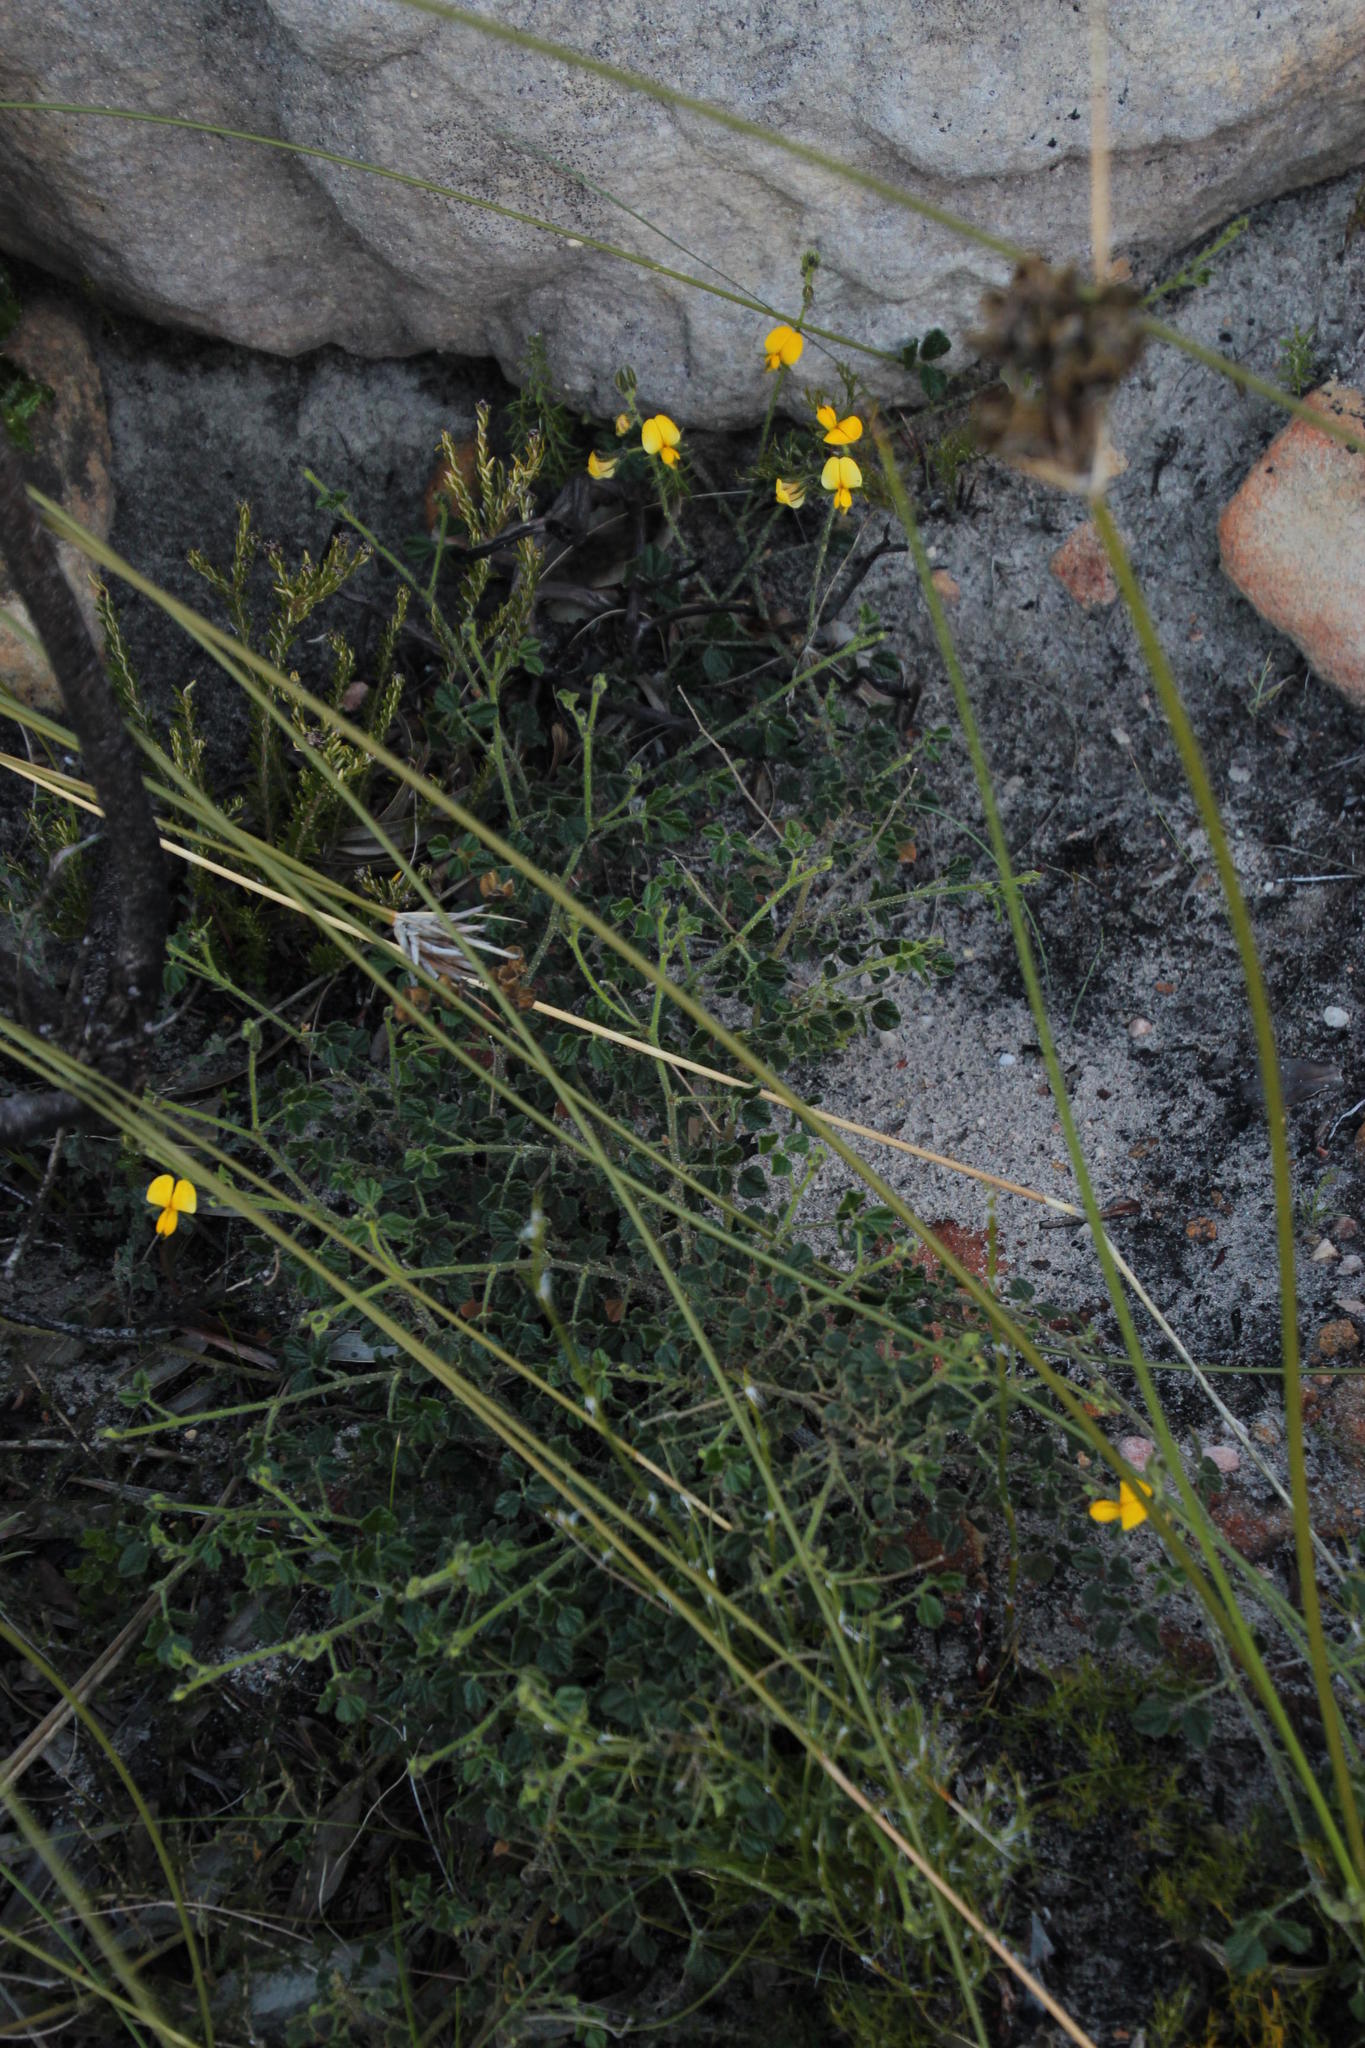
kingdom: Plantae
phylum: Tracheophyta
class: Magnoliopsida
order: Fabales
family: Fabaceae
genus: Bolusafra
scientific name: Bolusafra bituminosa
